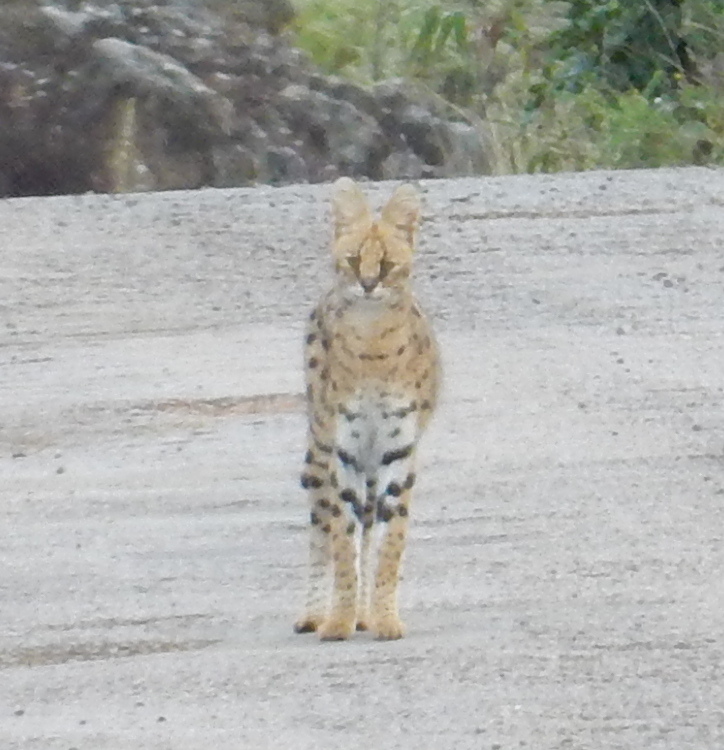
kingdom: Animalia
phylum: Chordata
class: Mammalia
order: Carnivora
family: Felidae
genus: Leptailurus
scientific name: Leptailurus serval
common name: Serval
